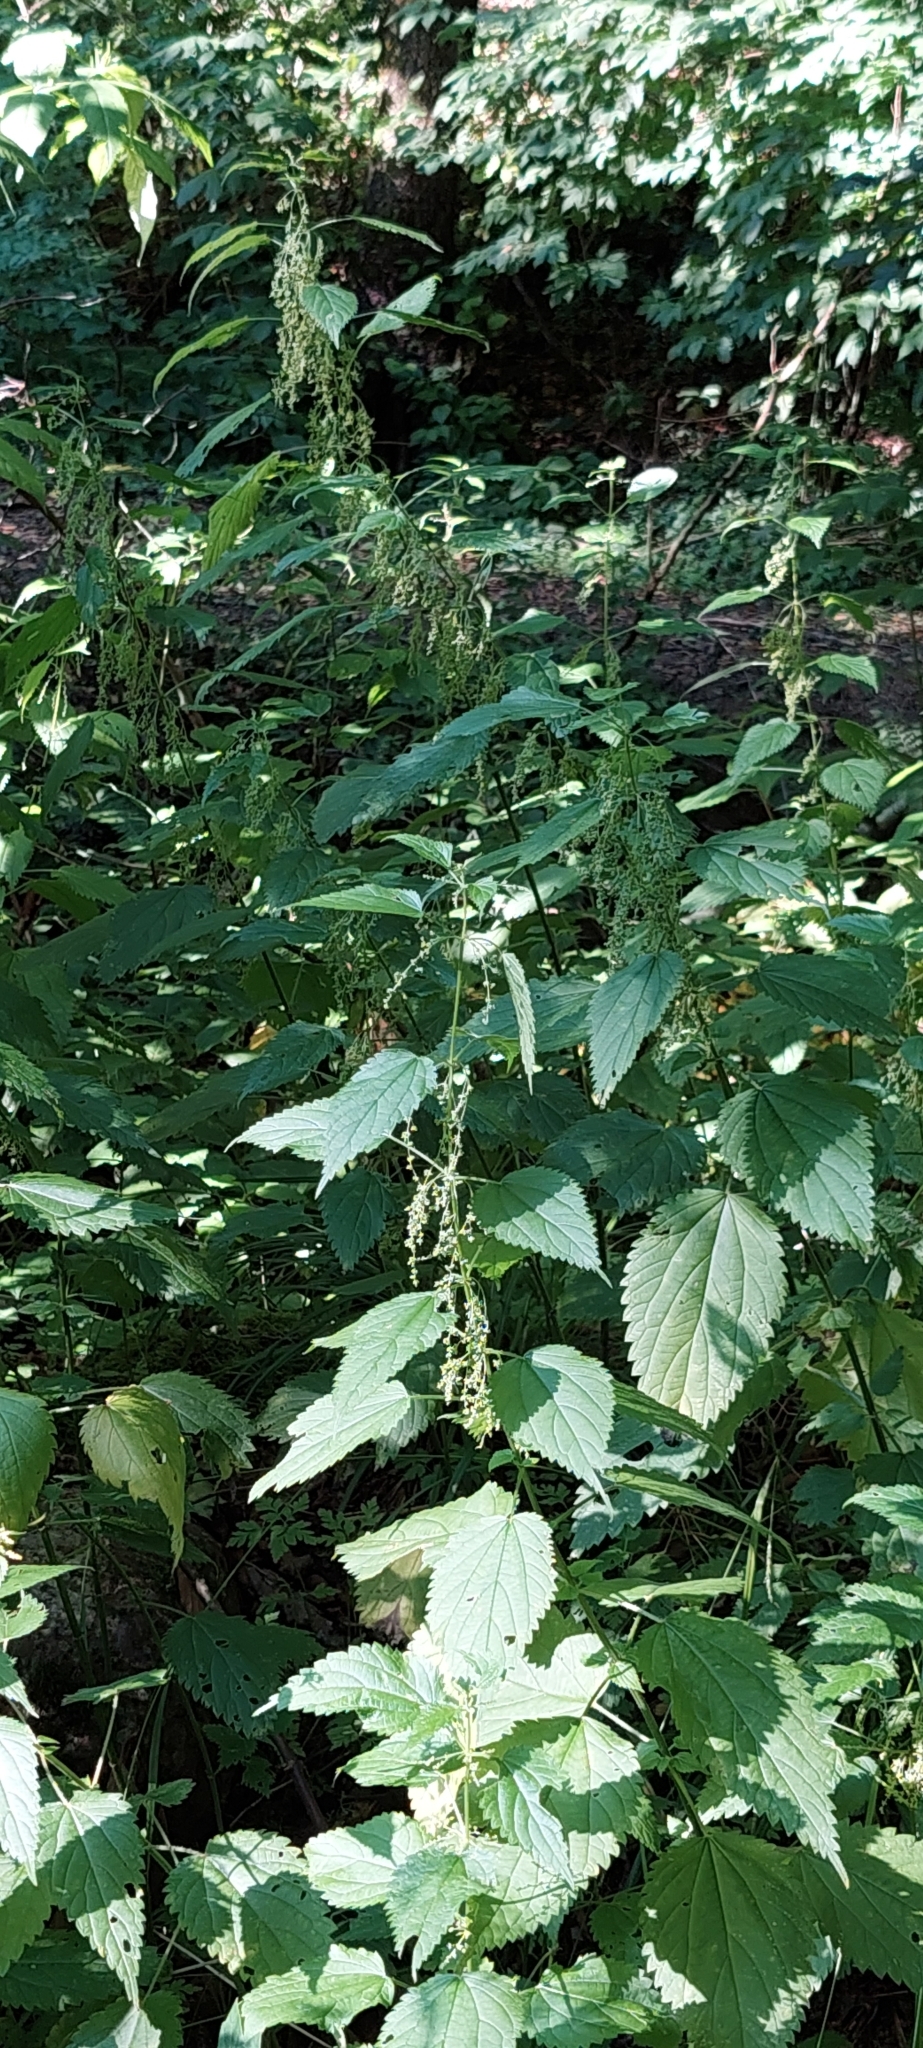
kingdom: Plantae
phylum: Tracheophyta
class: Magnoliopsida
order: Rosales
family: Urticaceae
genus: Urtica
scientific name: Urtica dioica
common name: Common nettle
